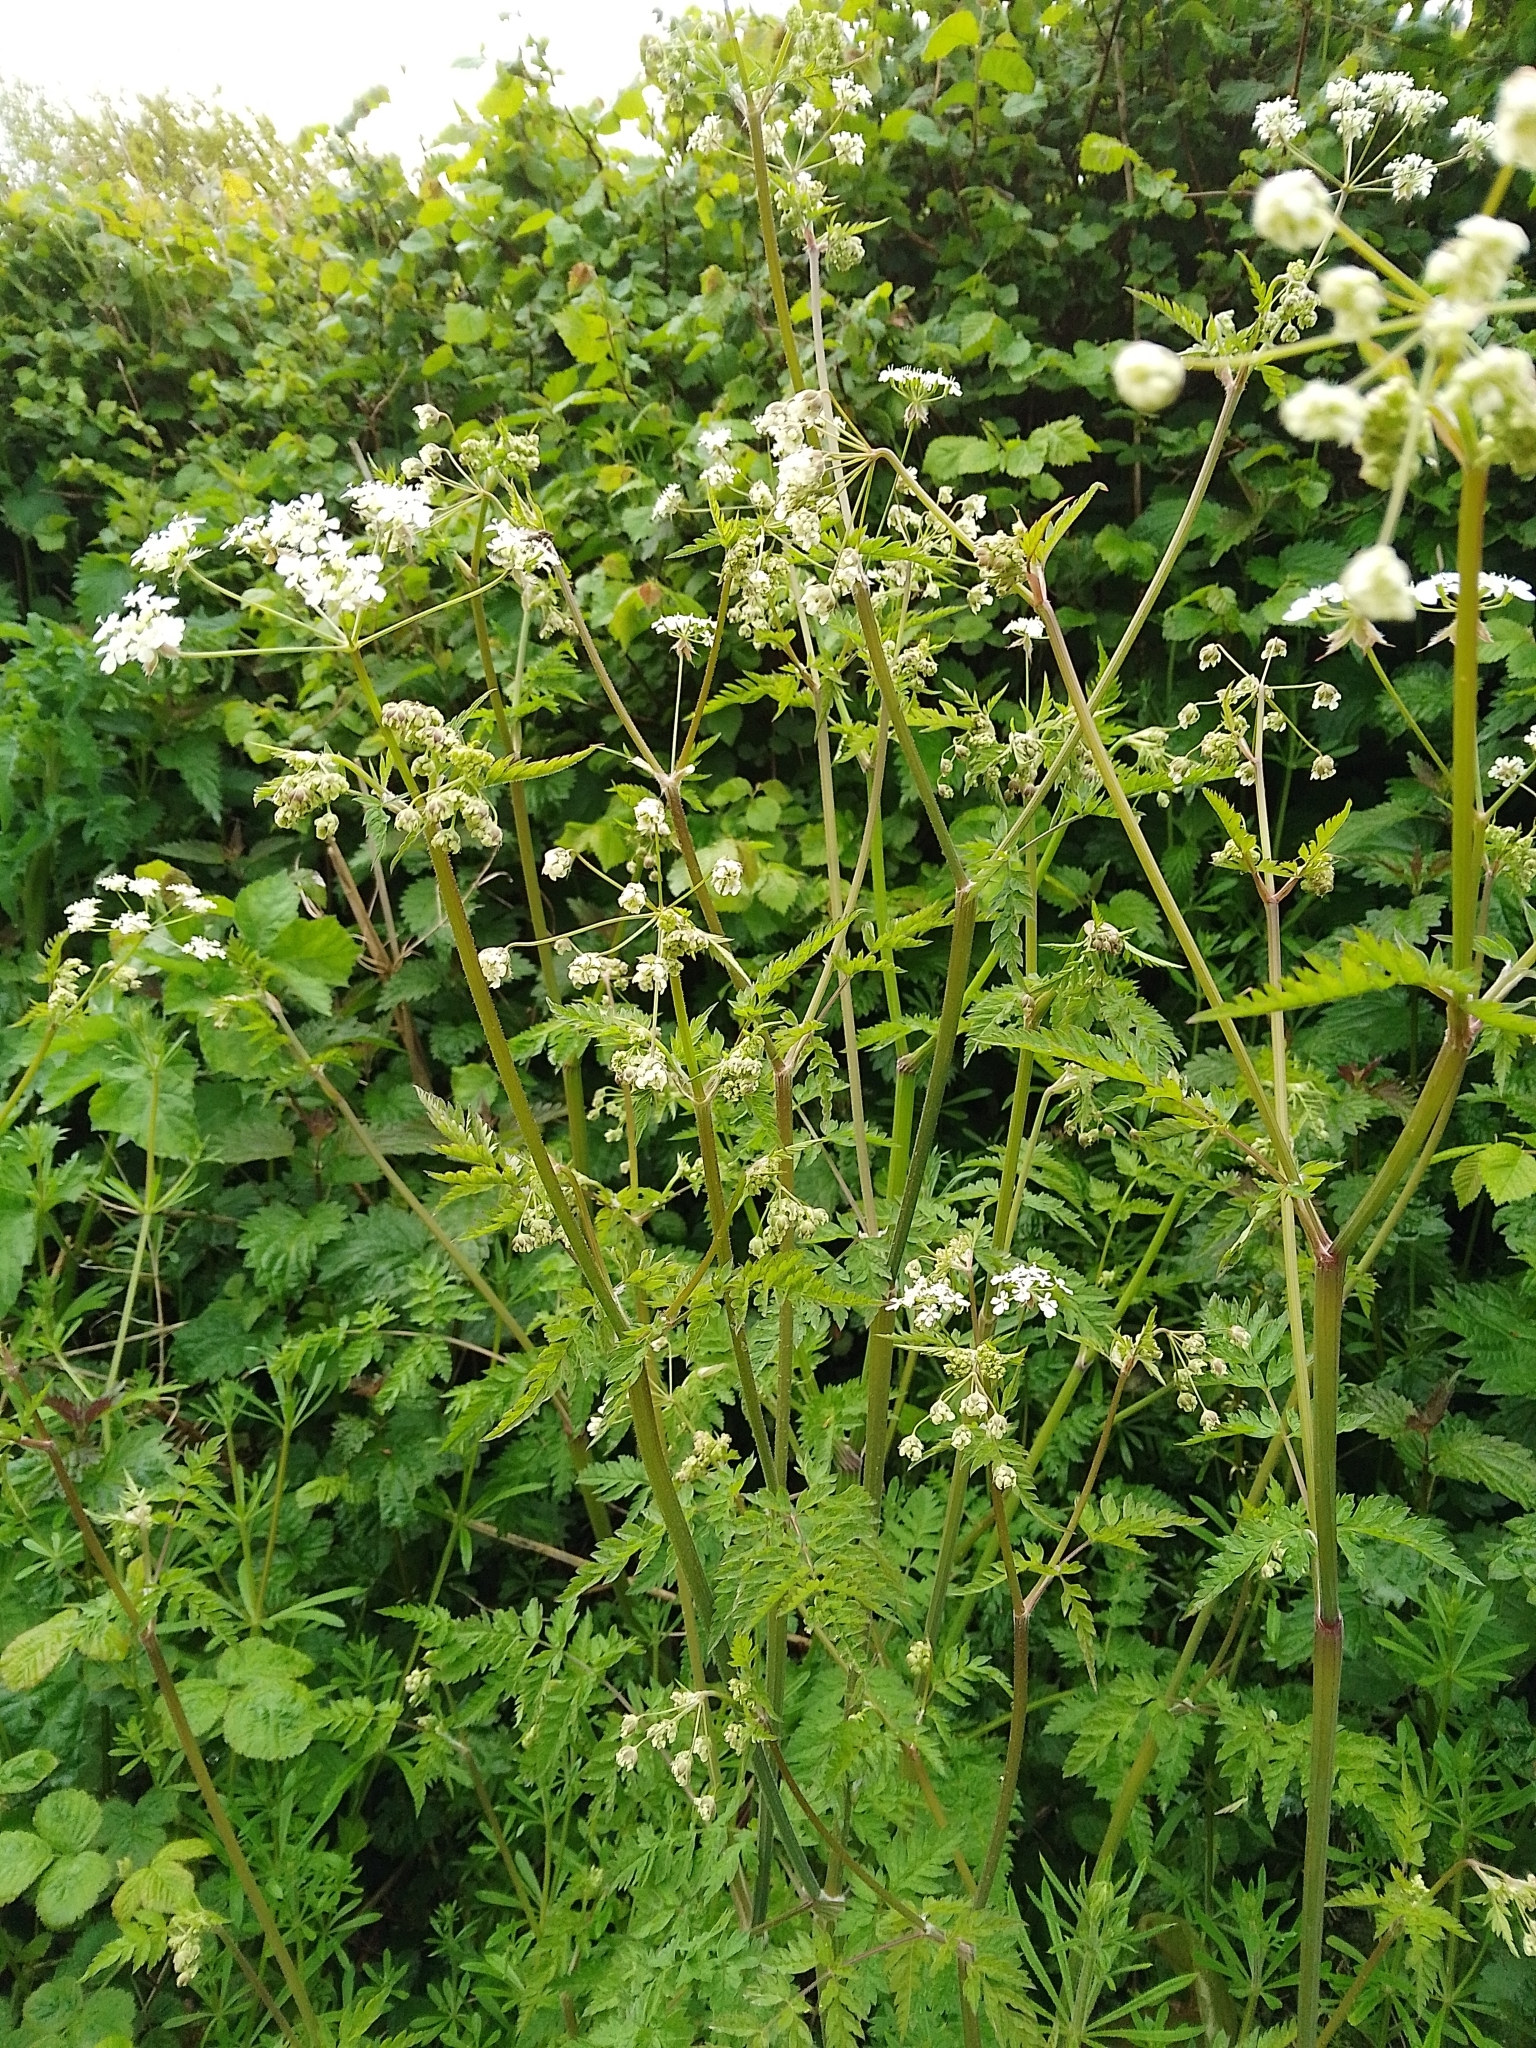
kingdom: Plantae
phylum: Tracheophyta
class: Magnoliopsida
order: Apiales
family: Apiaceae
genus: Anthriscus
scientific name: Anthriscus sylvestris
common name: Cow parsley
